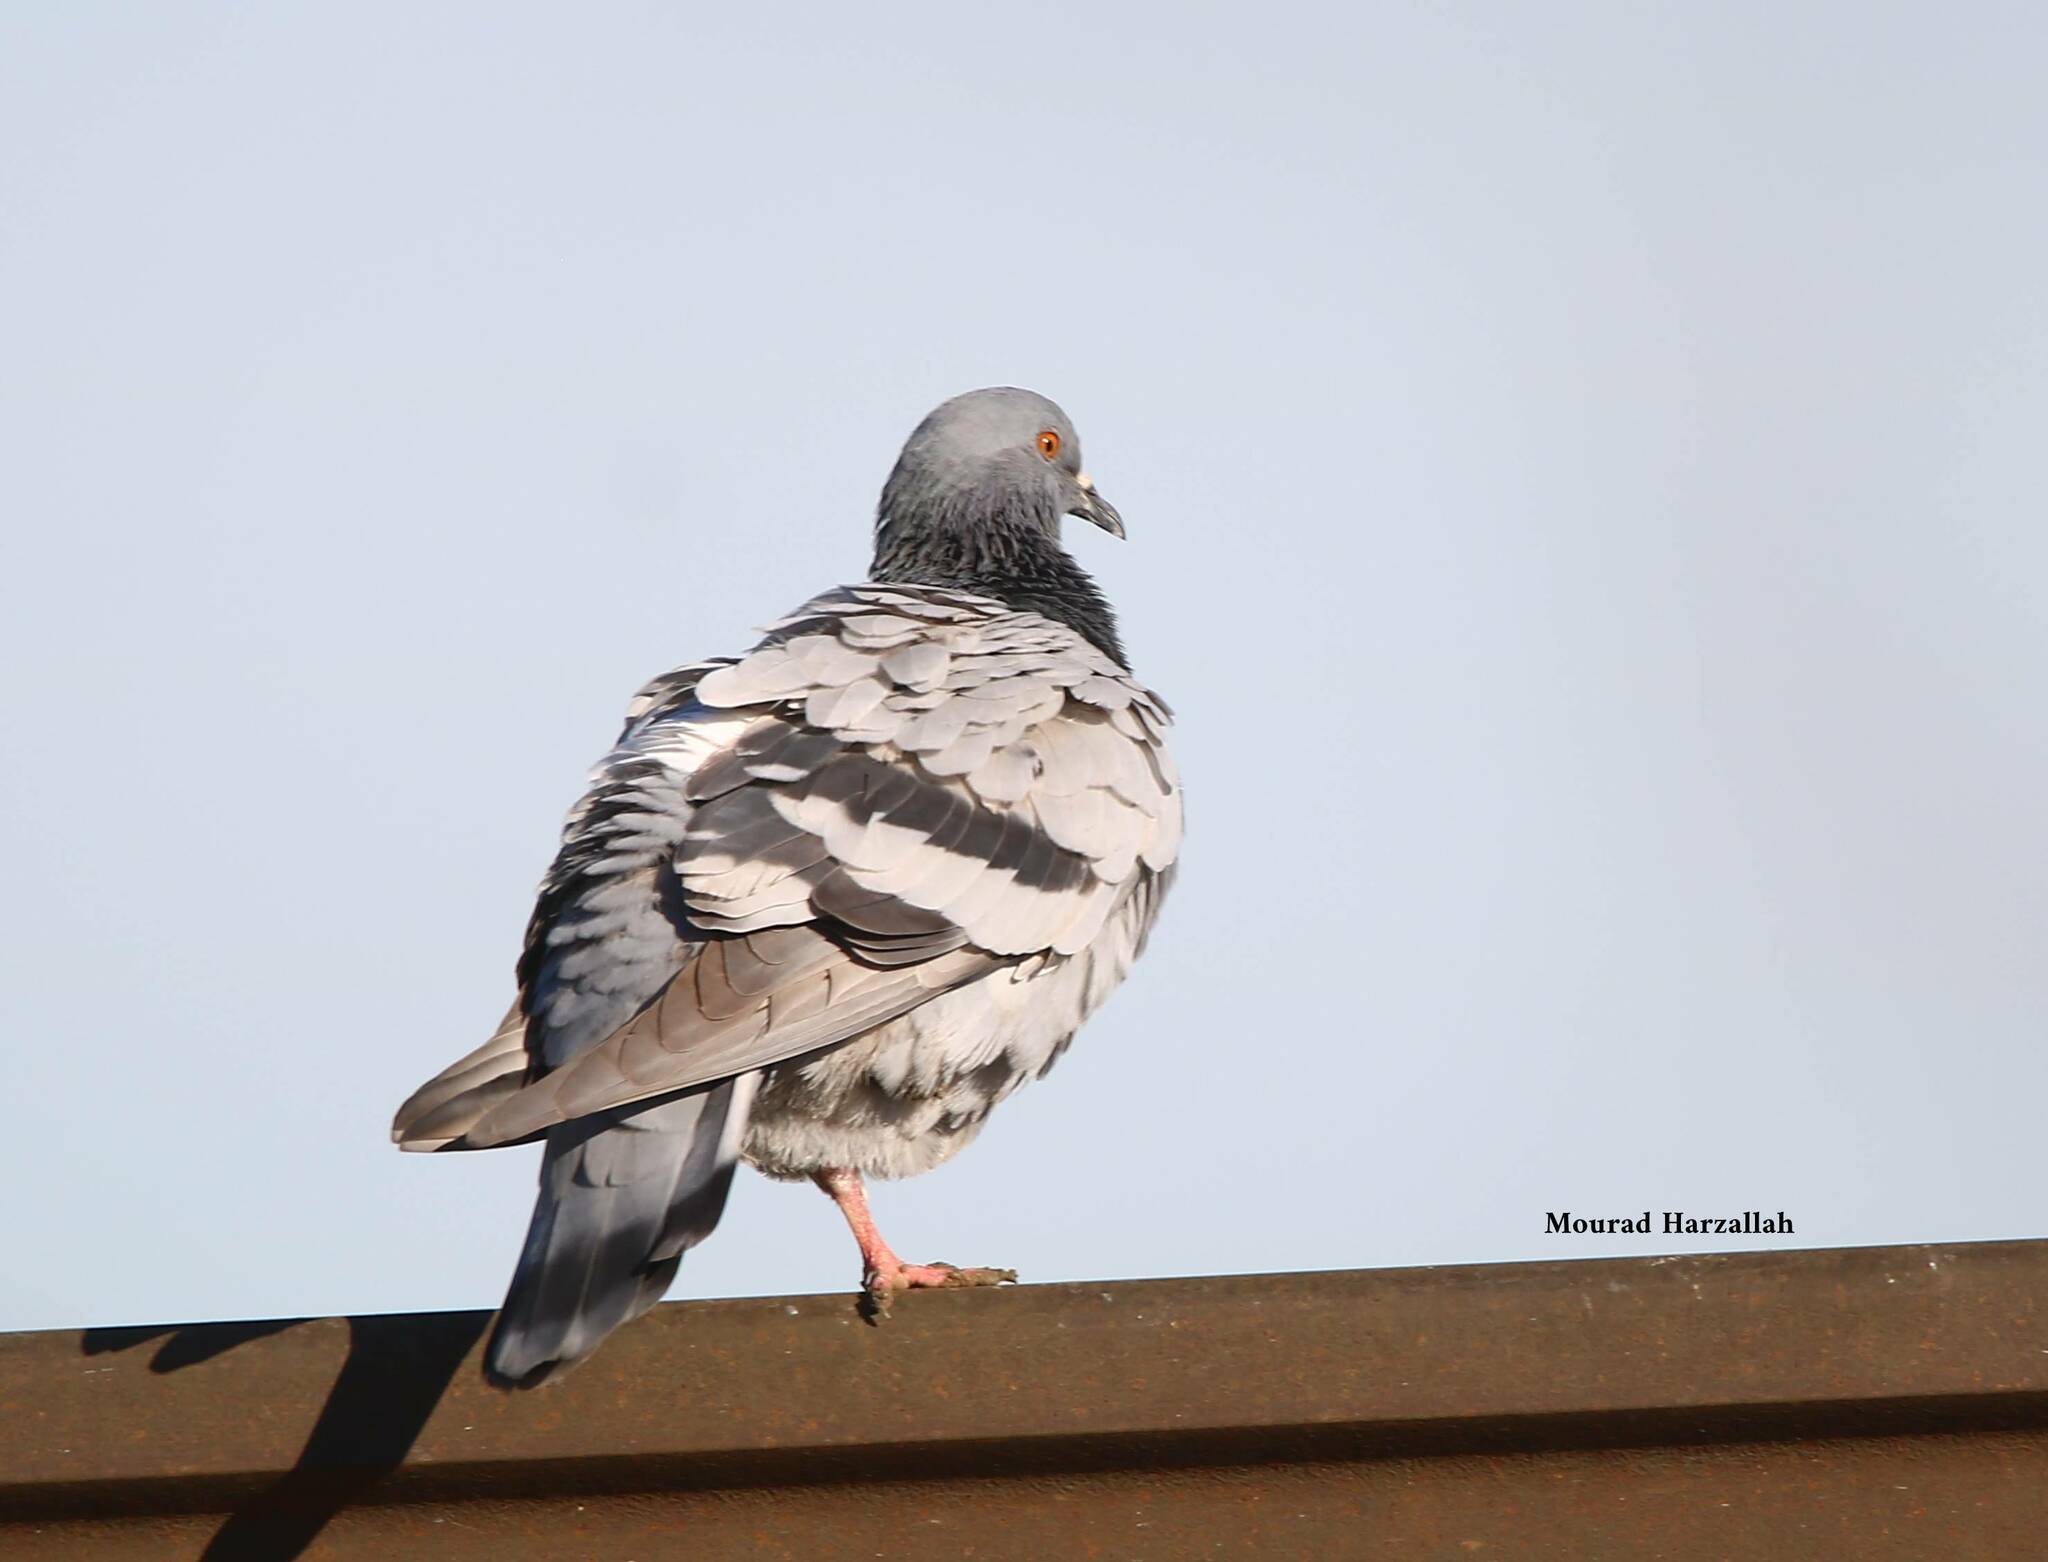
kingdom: Animalia
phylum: Chordata
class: Aves
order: Columbiformes
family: Columbidae
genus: Columba
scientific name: Columba livia
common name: Rock pigeon
